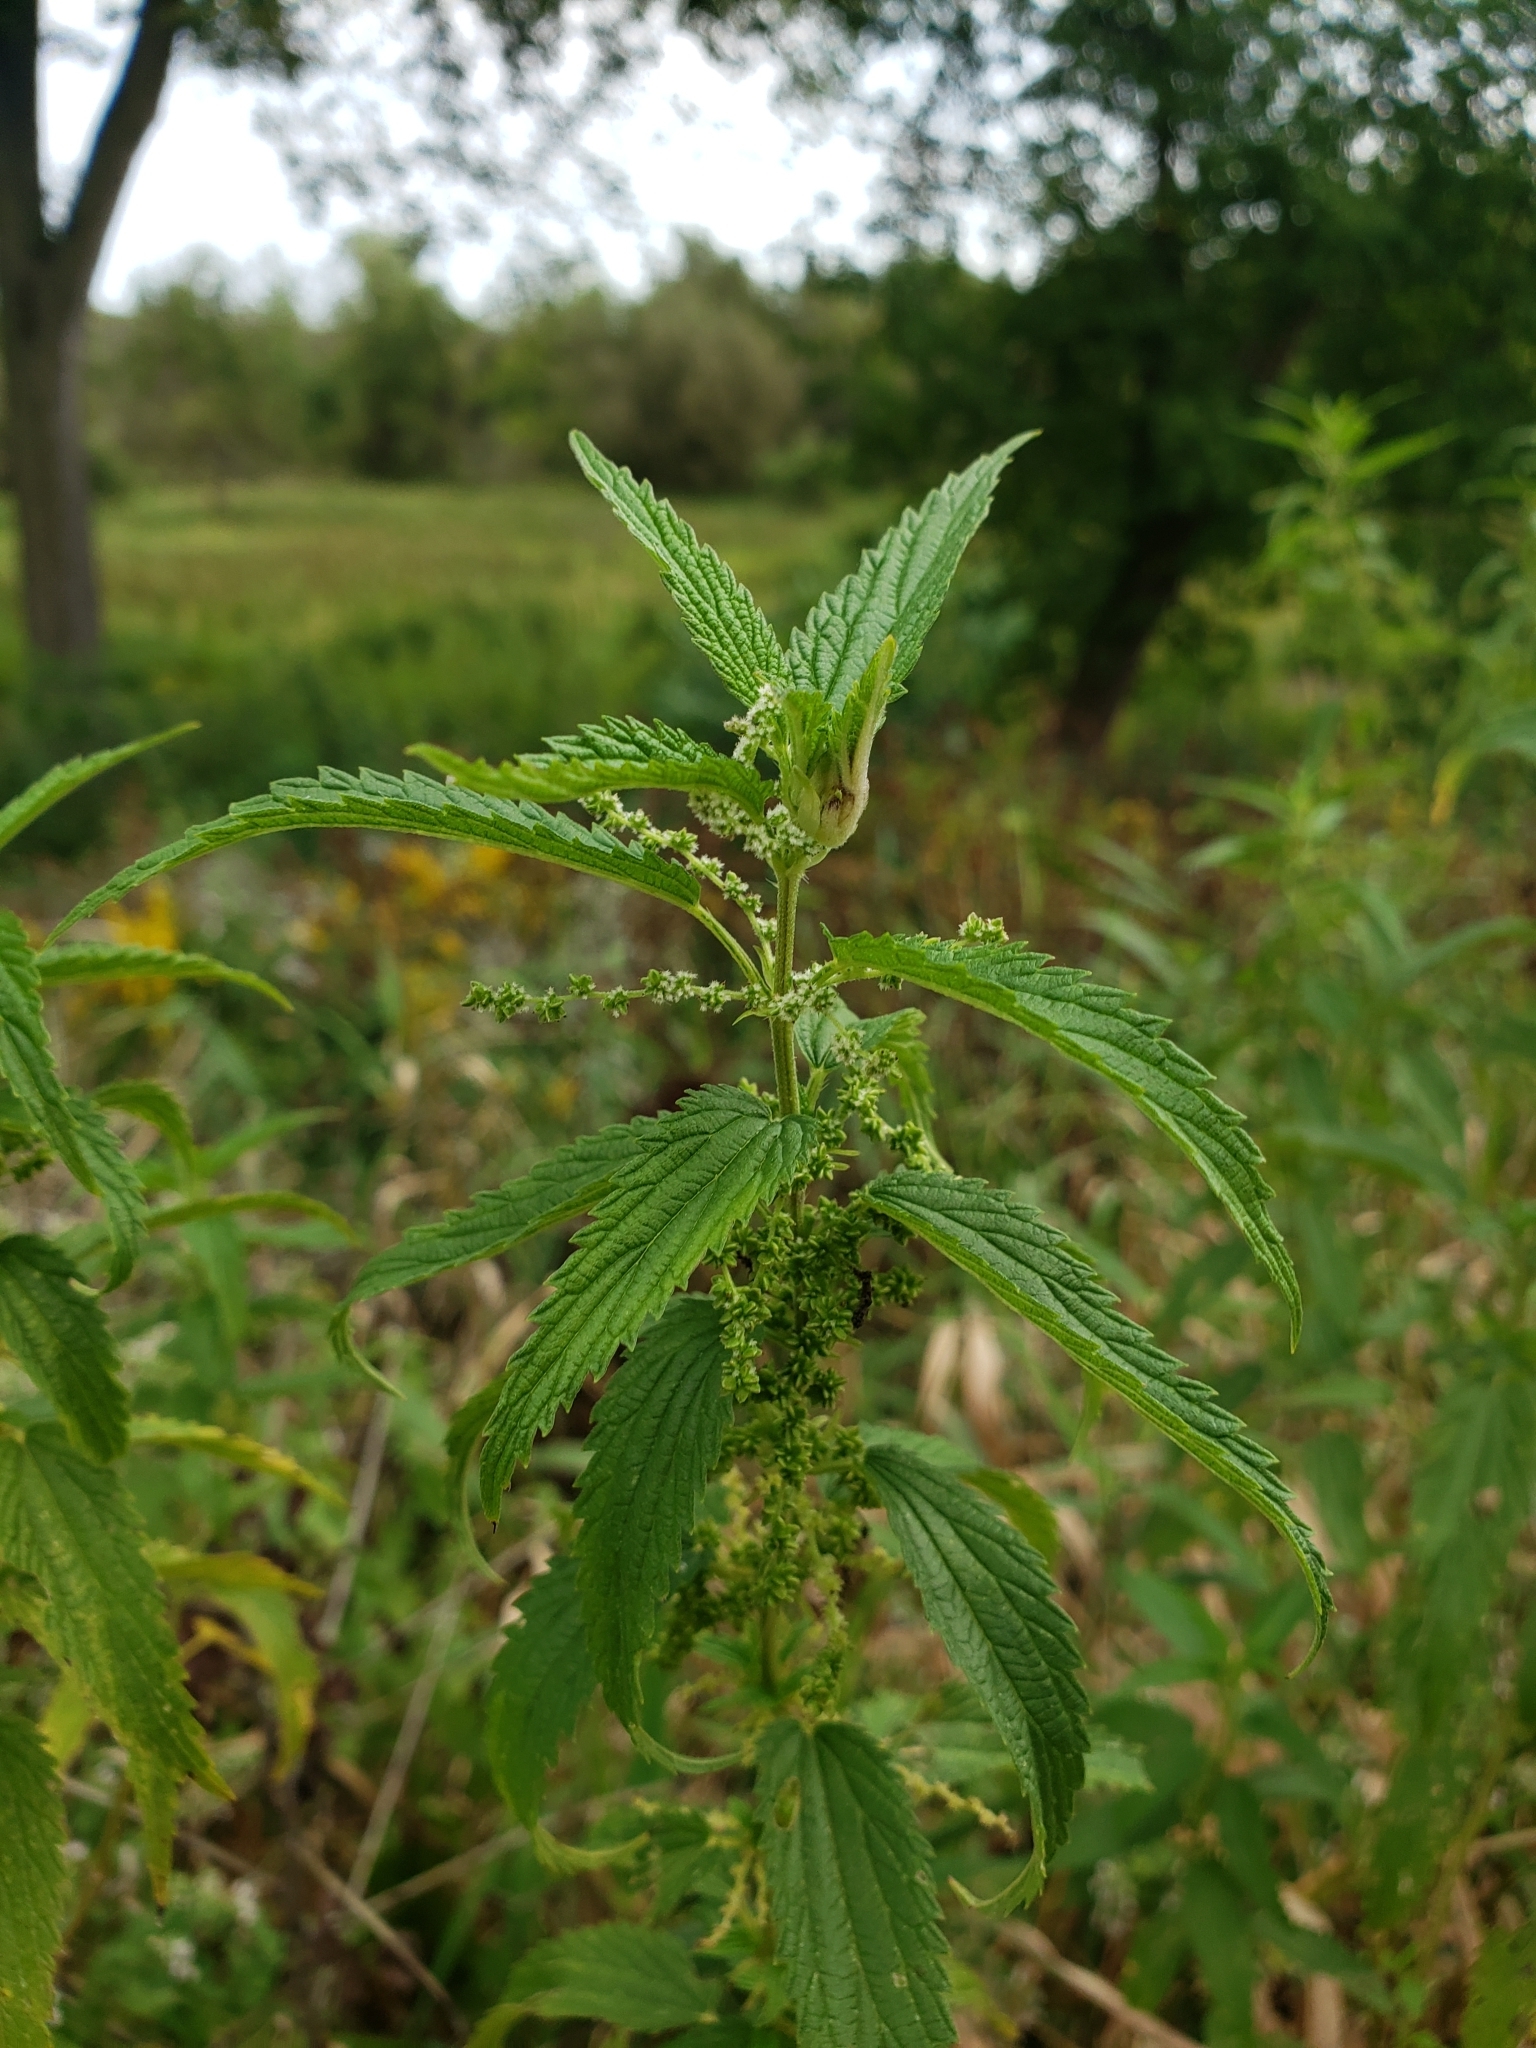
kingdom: Plantae
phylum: Tracheophyta
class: Magnoliopsida
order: Rosales
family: Urticaceae
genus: Urtica
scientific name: Urtica dioica
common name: Common nettle
